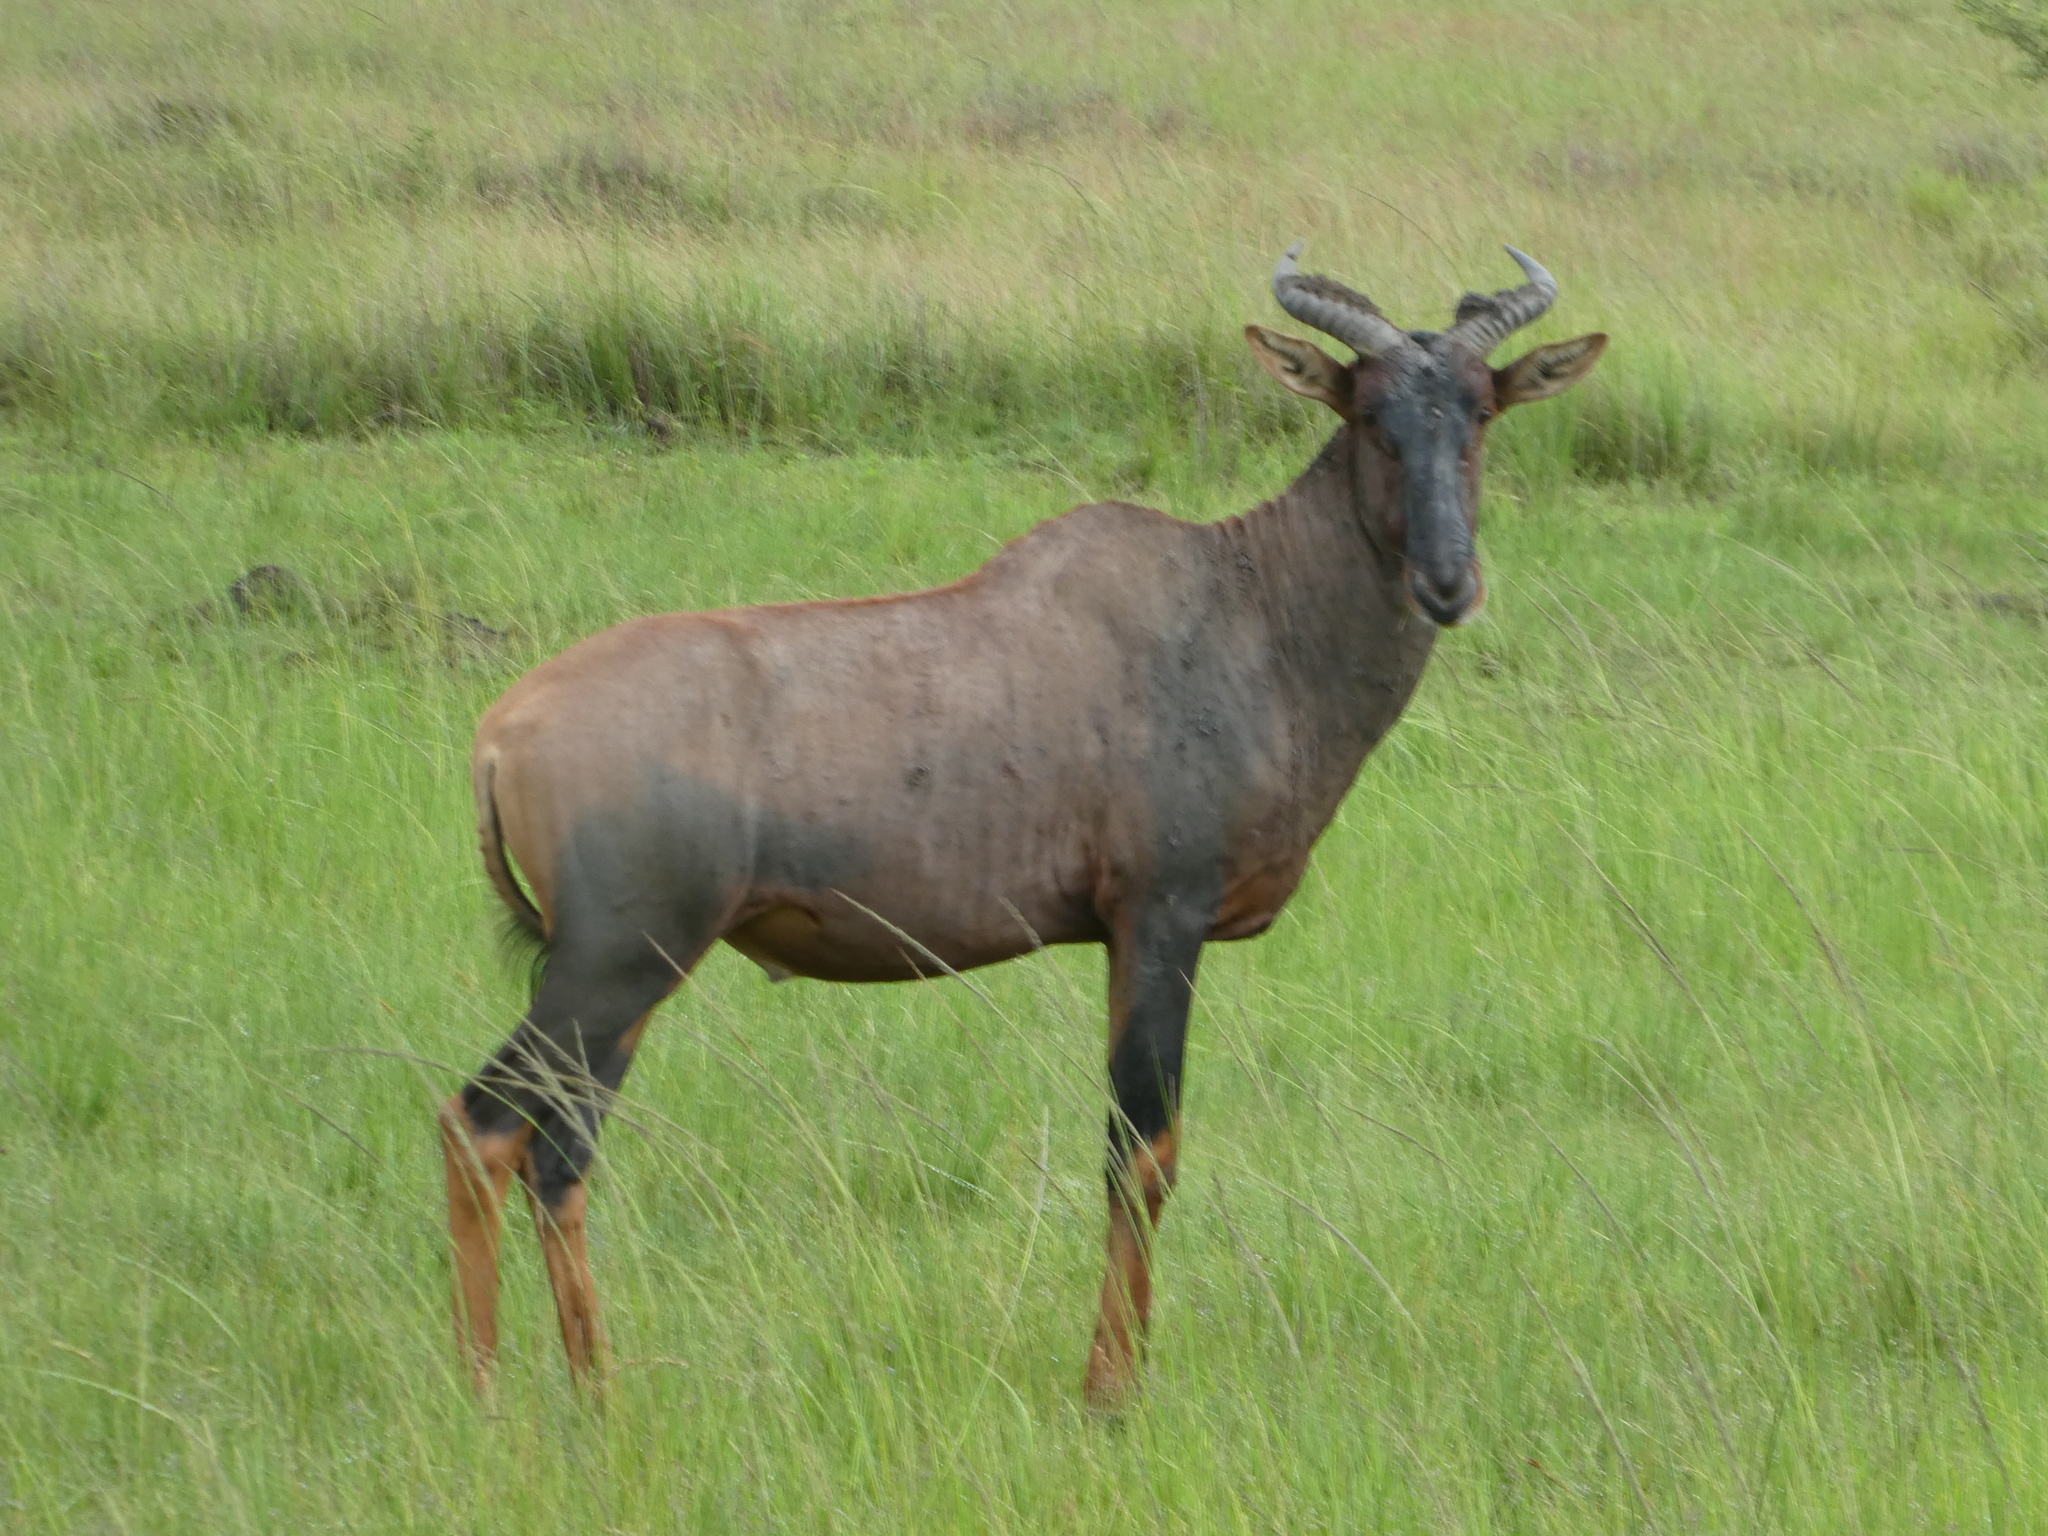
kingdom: Animalia
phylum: Chordata
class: Mammalia
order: Artiodactyla
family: Bovidae
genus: Damaliscus
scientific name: Damaliscus lunatus
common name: Common tsessebe
